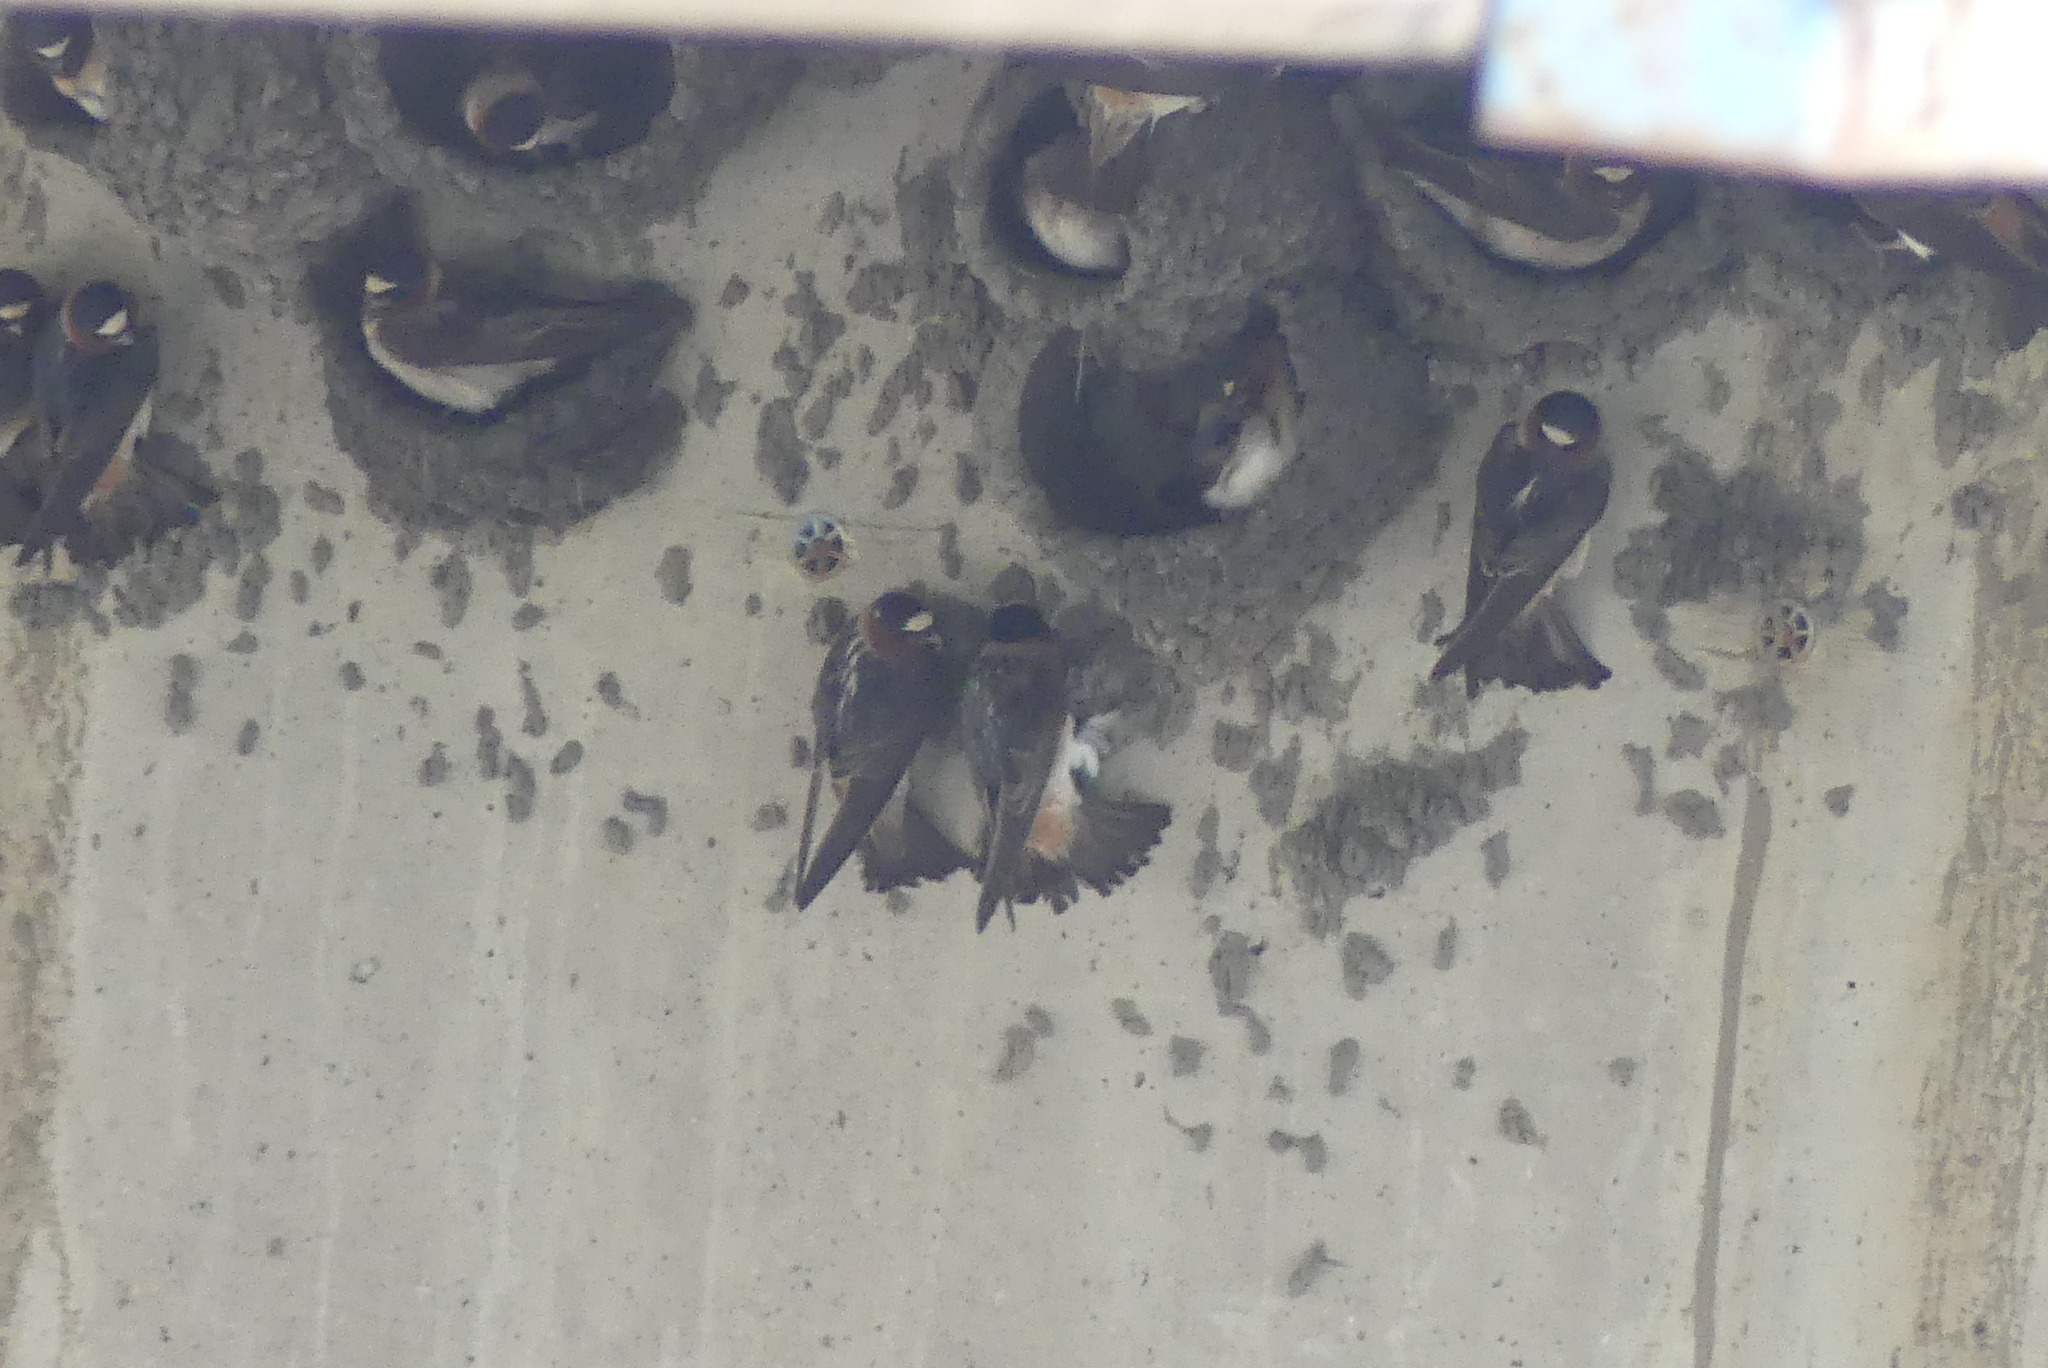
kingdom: Animalia
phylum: Chordata
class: Aves
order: Passeriformes
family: Hirundinidae
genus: Petrochelidon
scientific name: Petrochelidon pyrrhonota
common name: American cliff swallow
